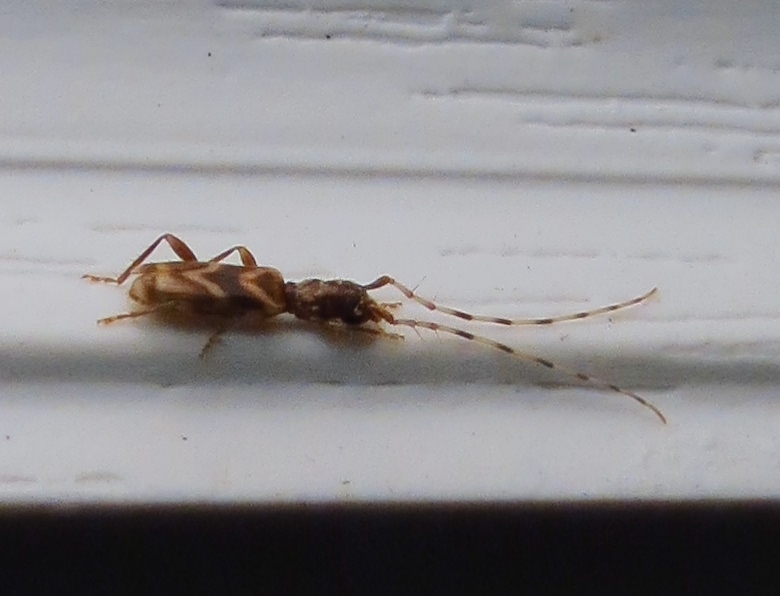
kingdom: Animalia
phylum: Arthropoda
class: Insecta
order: Coleoptera
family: Cerambycidae
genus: Stenhomalus
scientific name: Stenhomalus taiwanus
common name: Taiwan slender longhorned beetle
